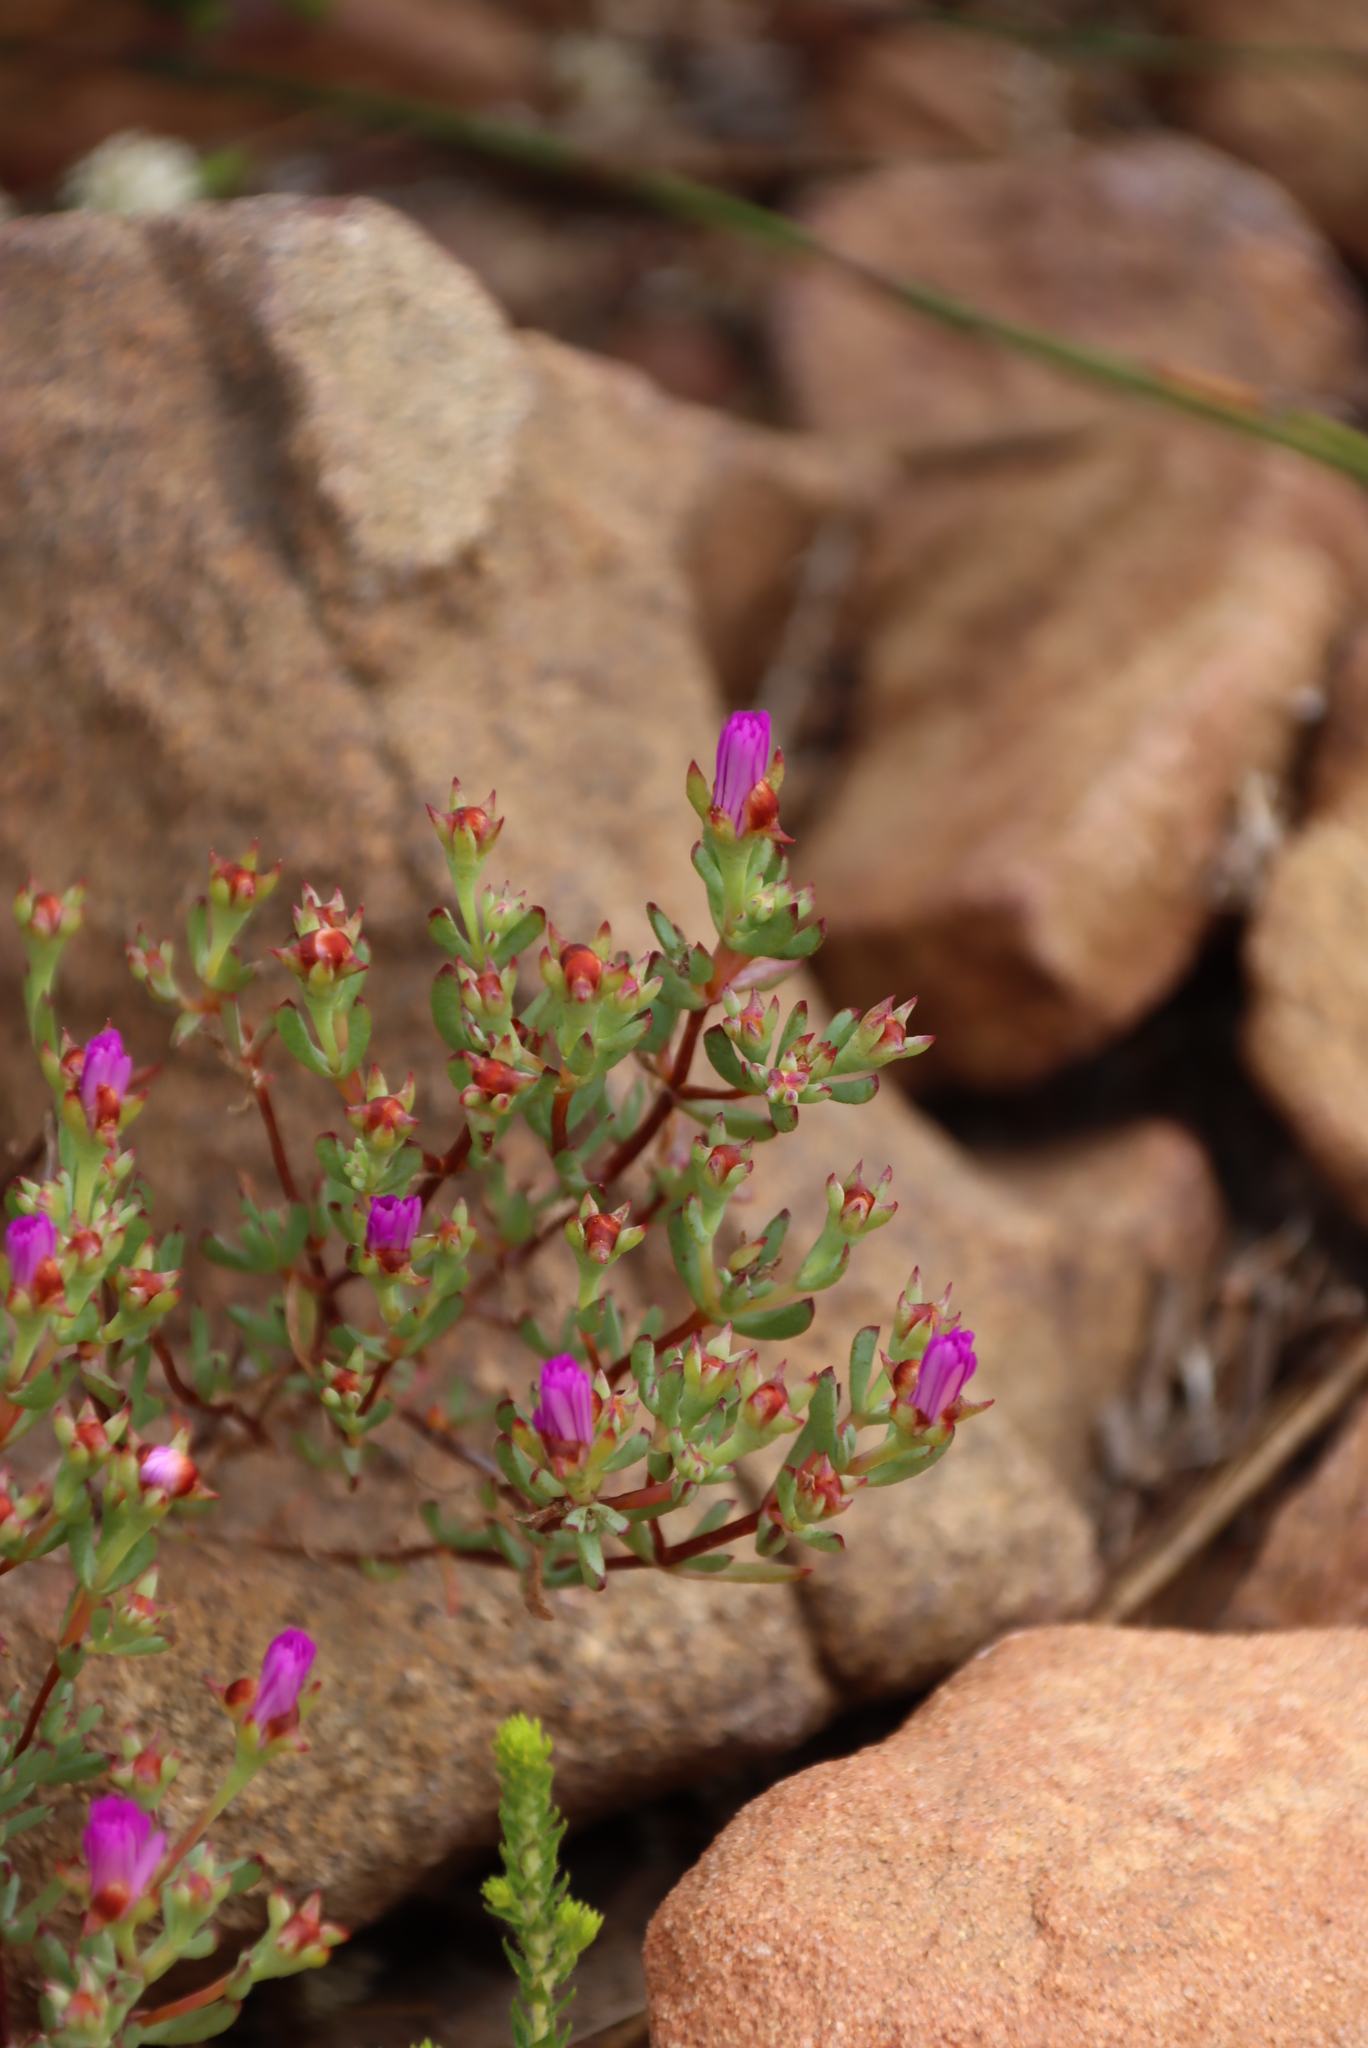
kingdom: Plantae
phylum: Tracheophyta
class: Magnoliopsida
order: Caryophyllales
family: Aizoaceae
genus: Oscularia
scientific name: Oscularia falciformis
